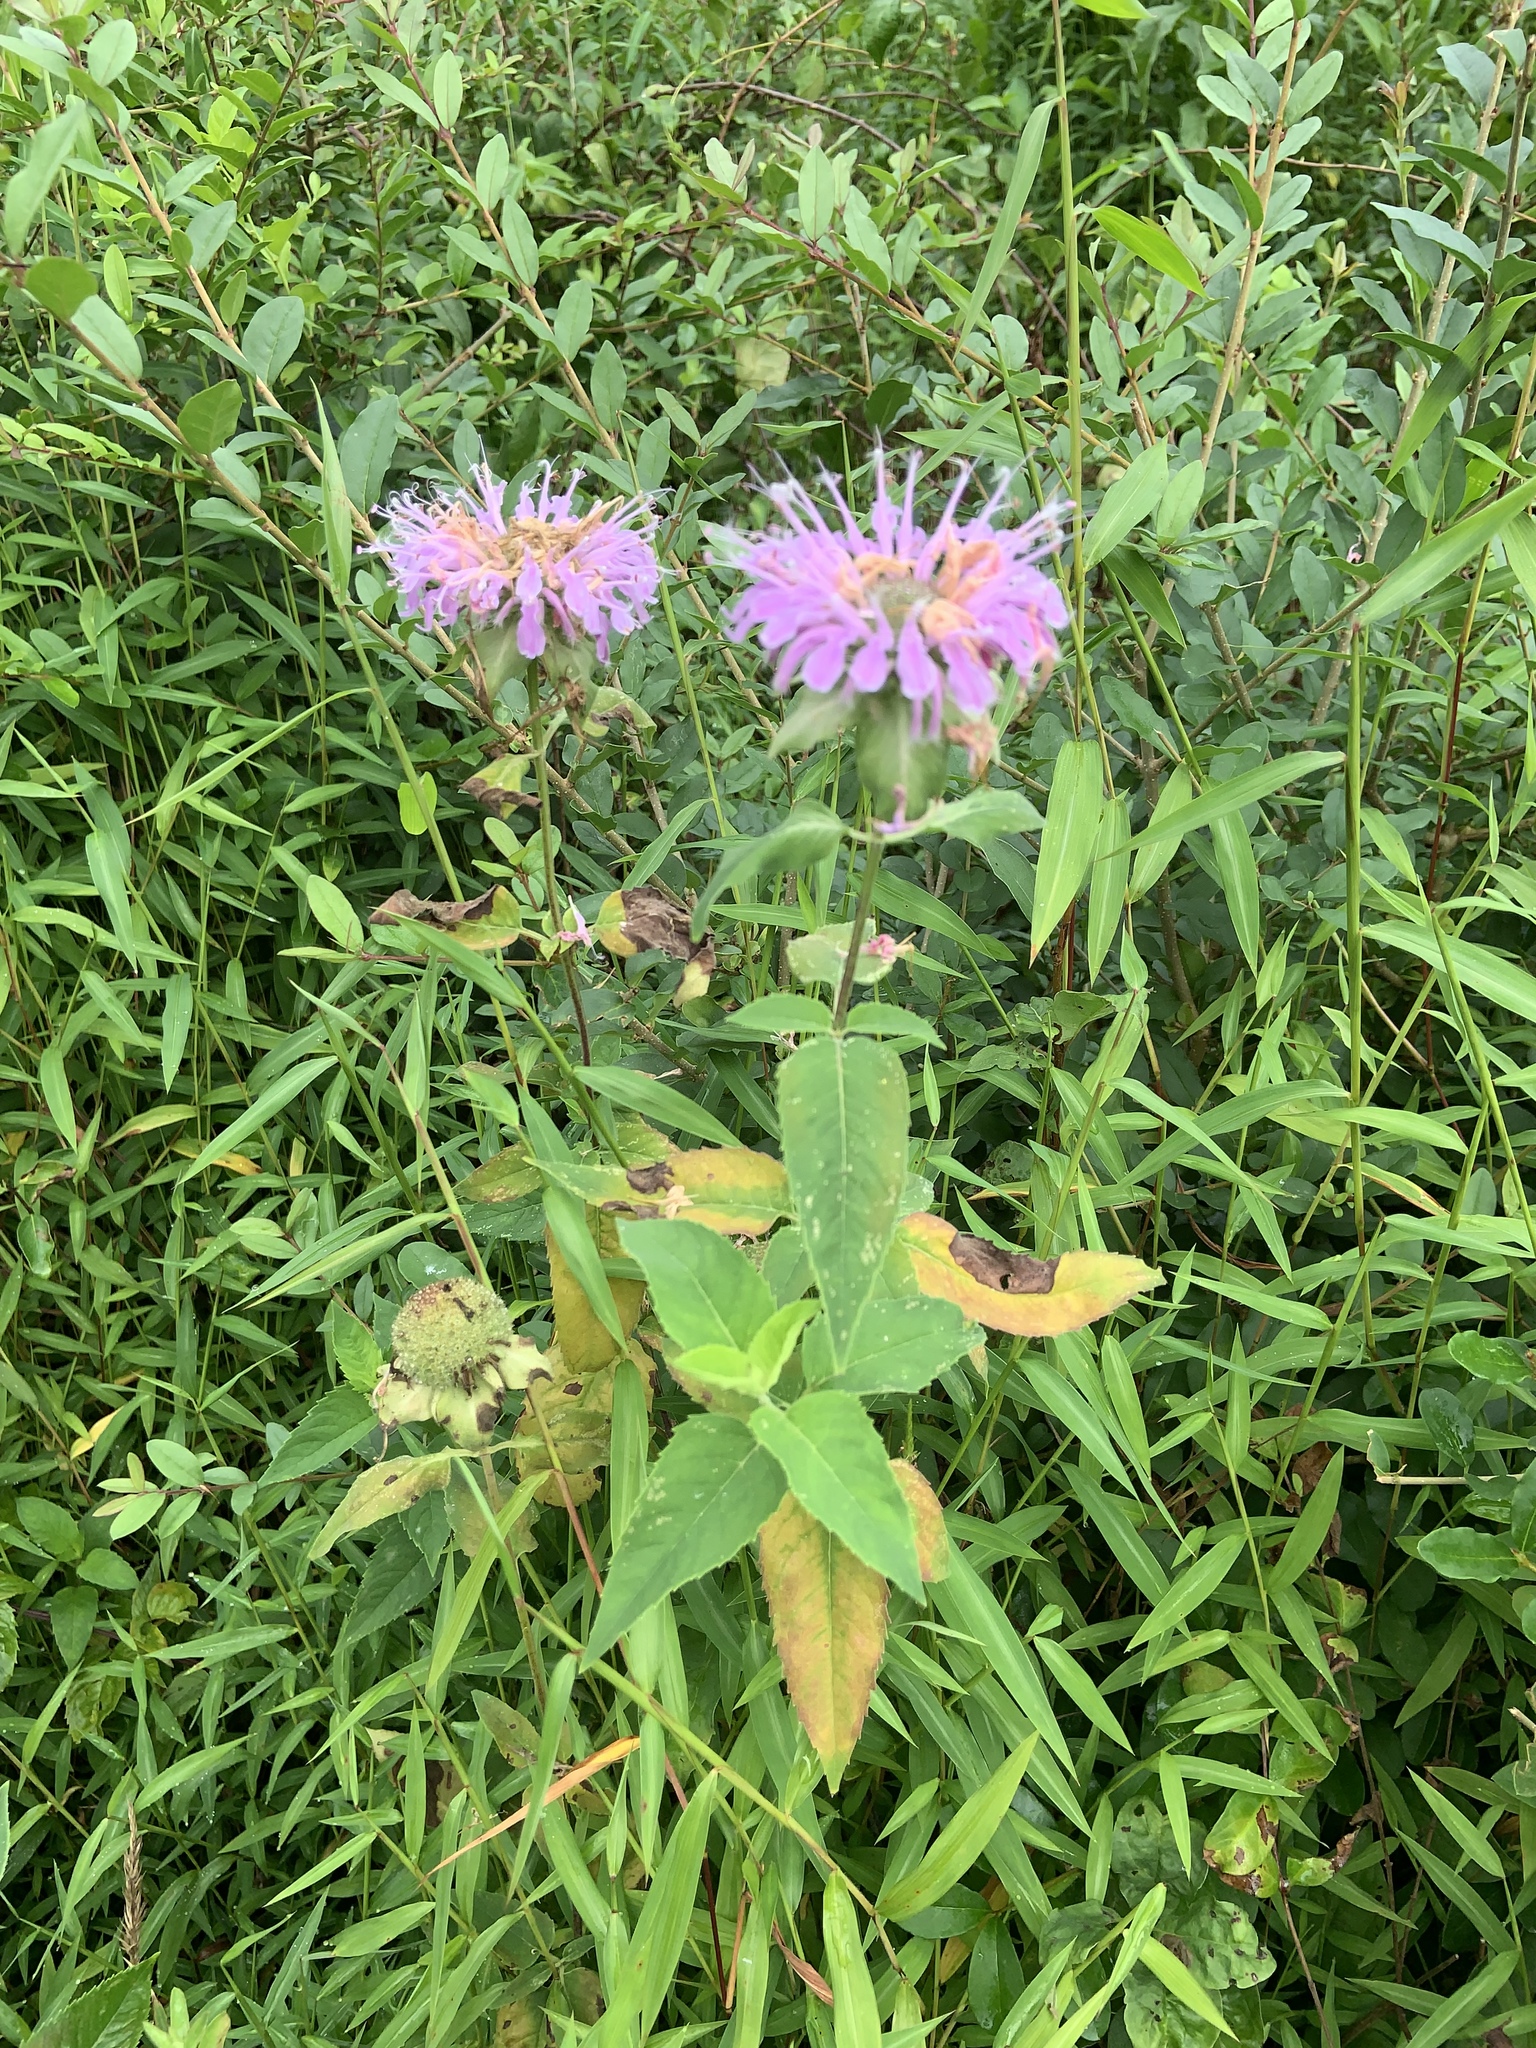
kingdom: Plantae
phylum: Tracheophyta
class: Magnoliopsida
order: Lamiales
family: Lamiaceae
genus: Monarda
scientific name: Monarda fistulosa
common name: Purple beebalm
